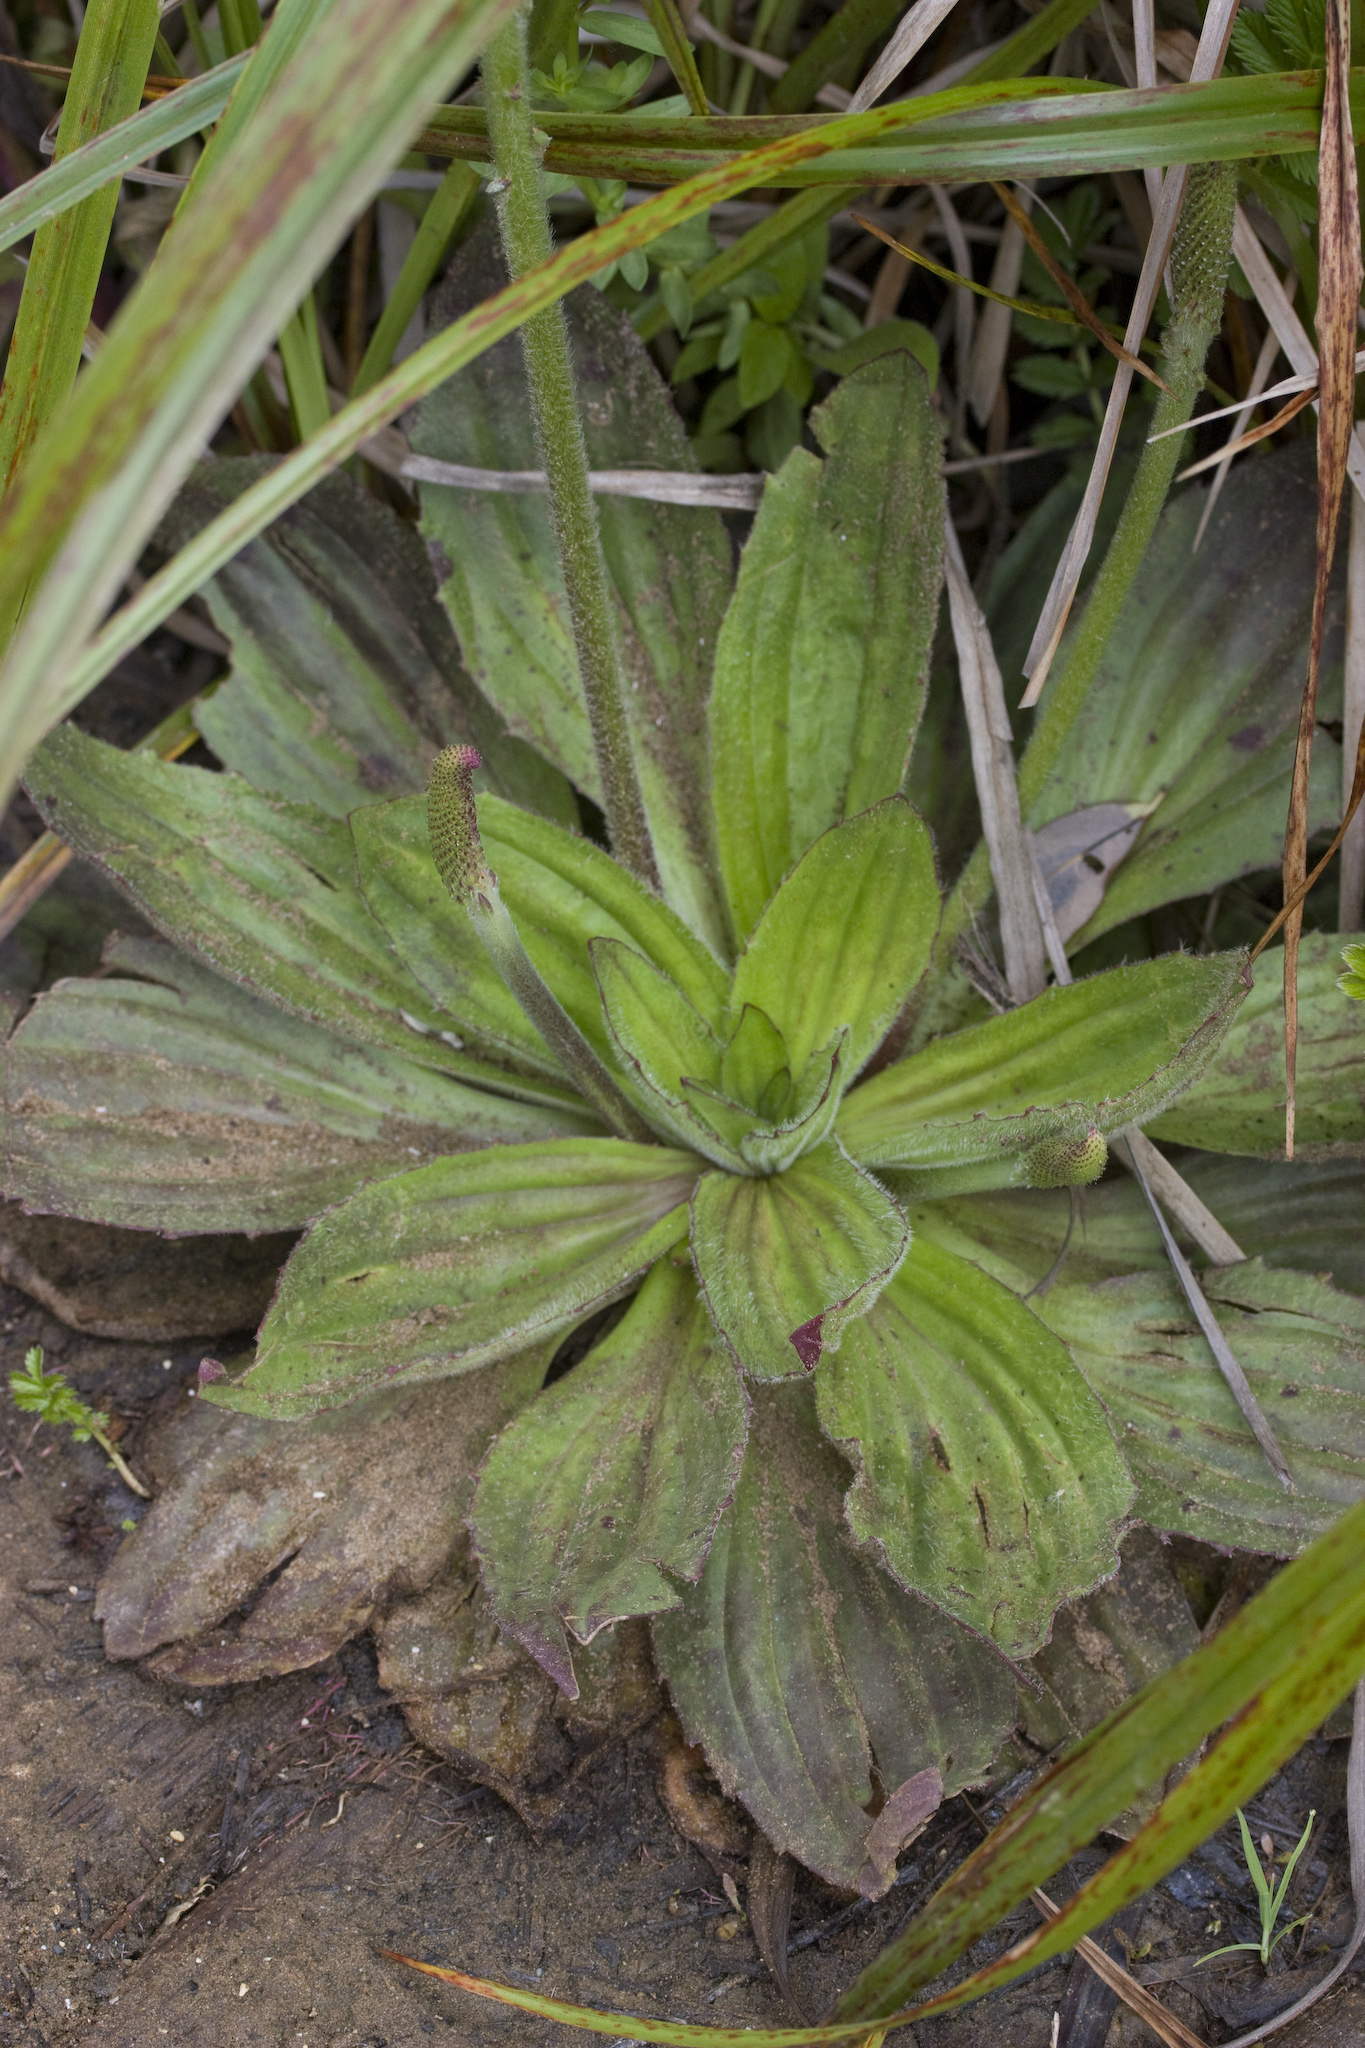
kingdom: Plantae
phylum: Tracheophyta
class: Magnoliopsida
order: Lamiales
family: Plantaginaceae
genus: Plantago
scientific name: Plantago subnuda
